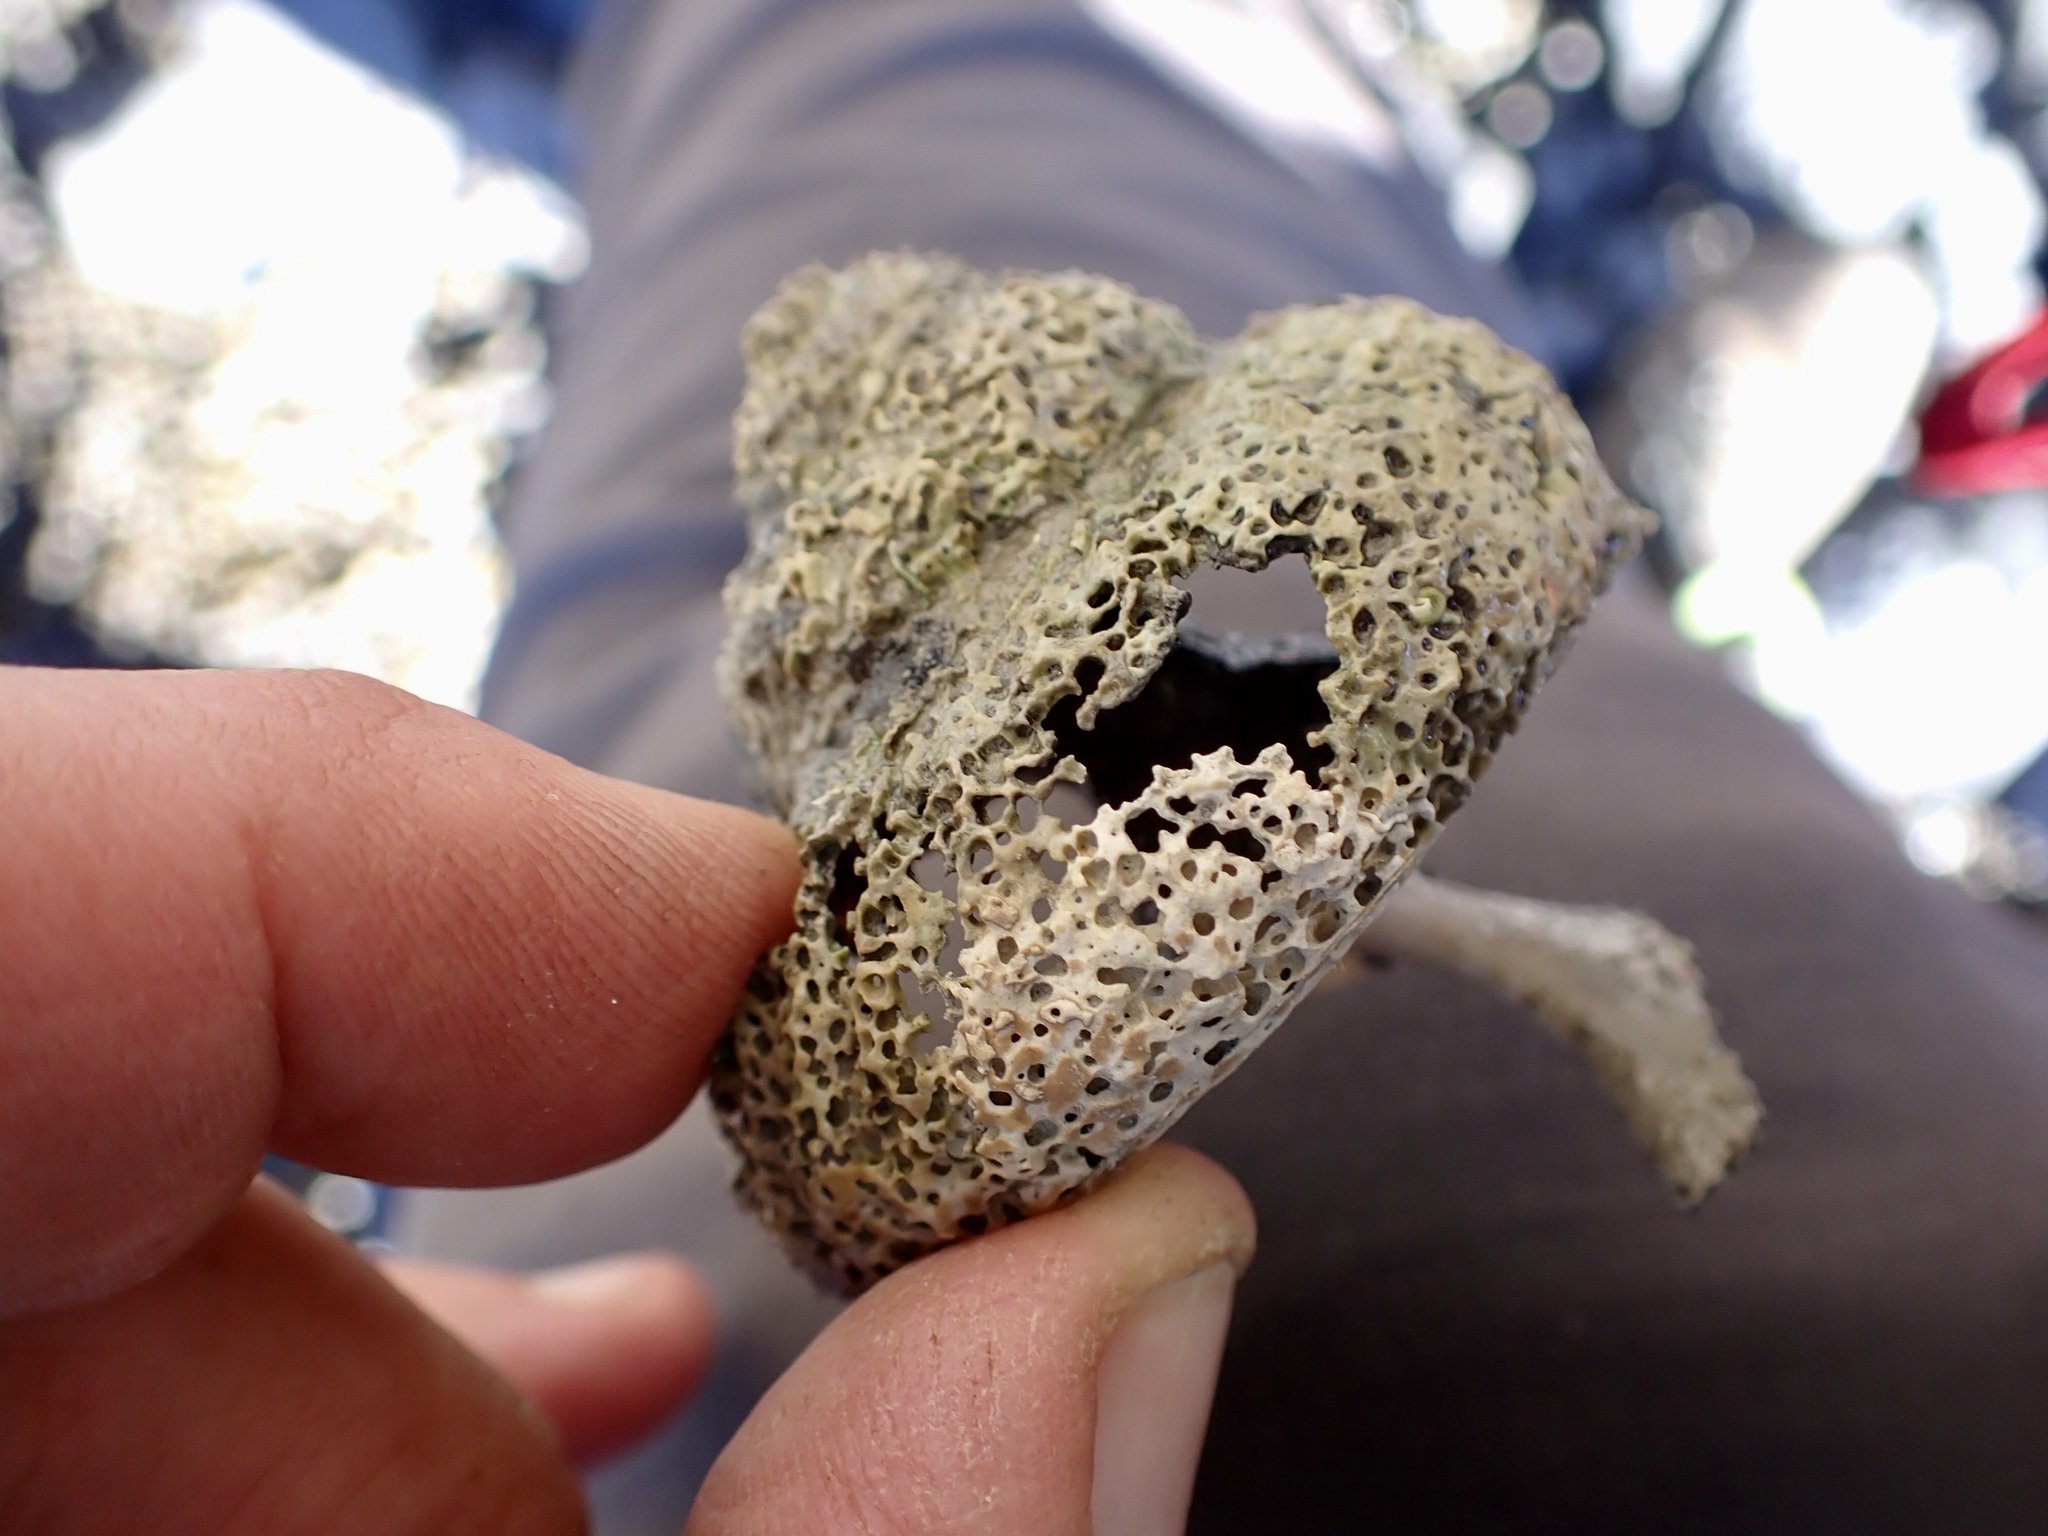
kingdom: Animalia
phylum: Mollusca
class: Gastropoda
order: Trochida
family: Turbinidae
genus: Cookia
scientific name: Cookia sulcata
